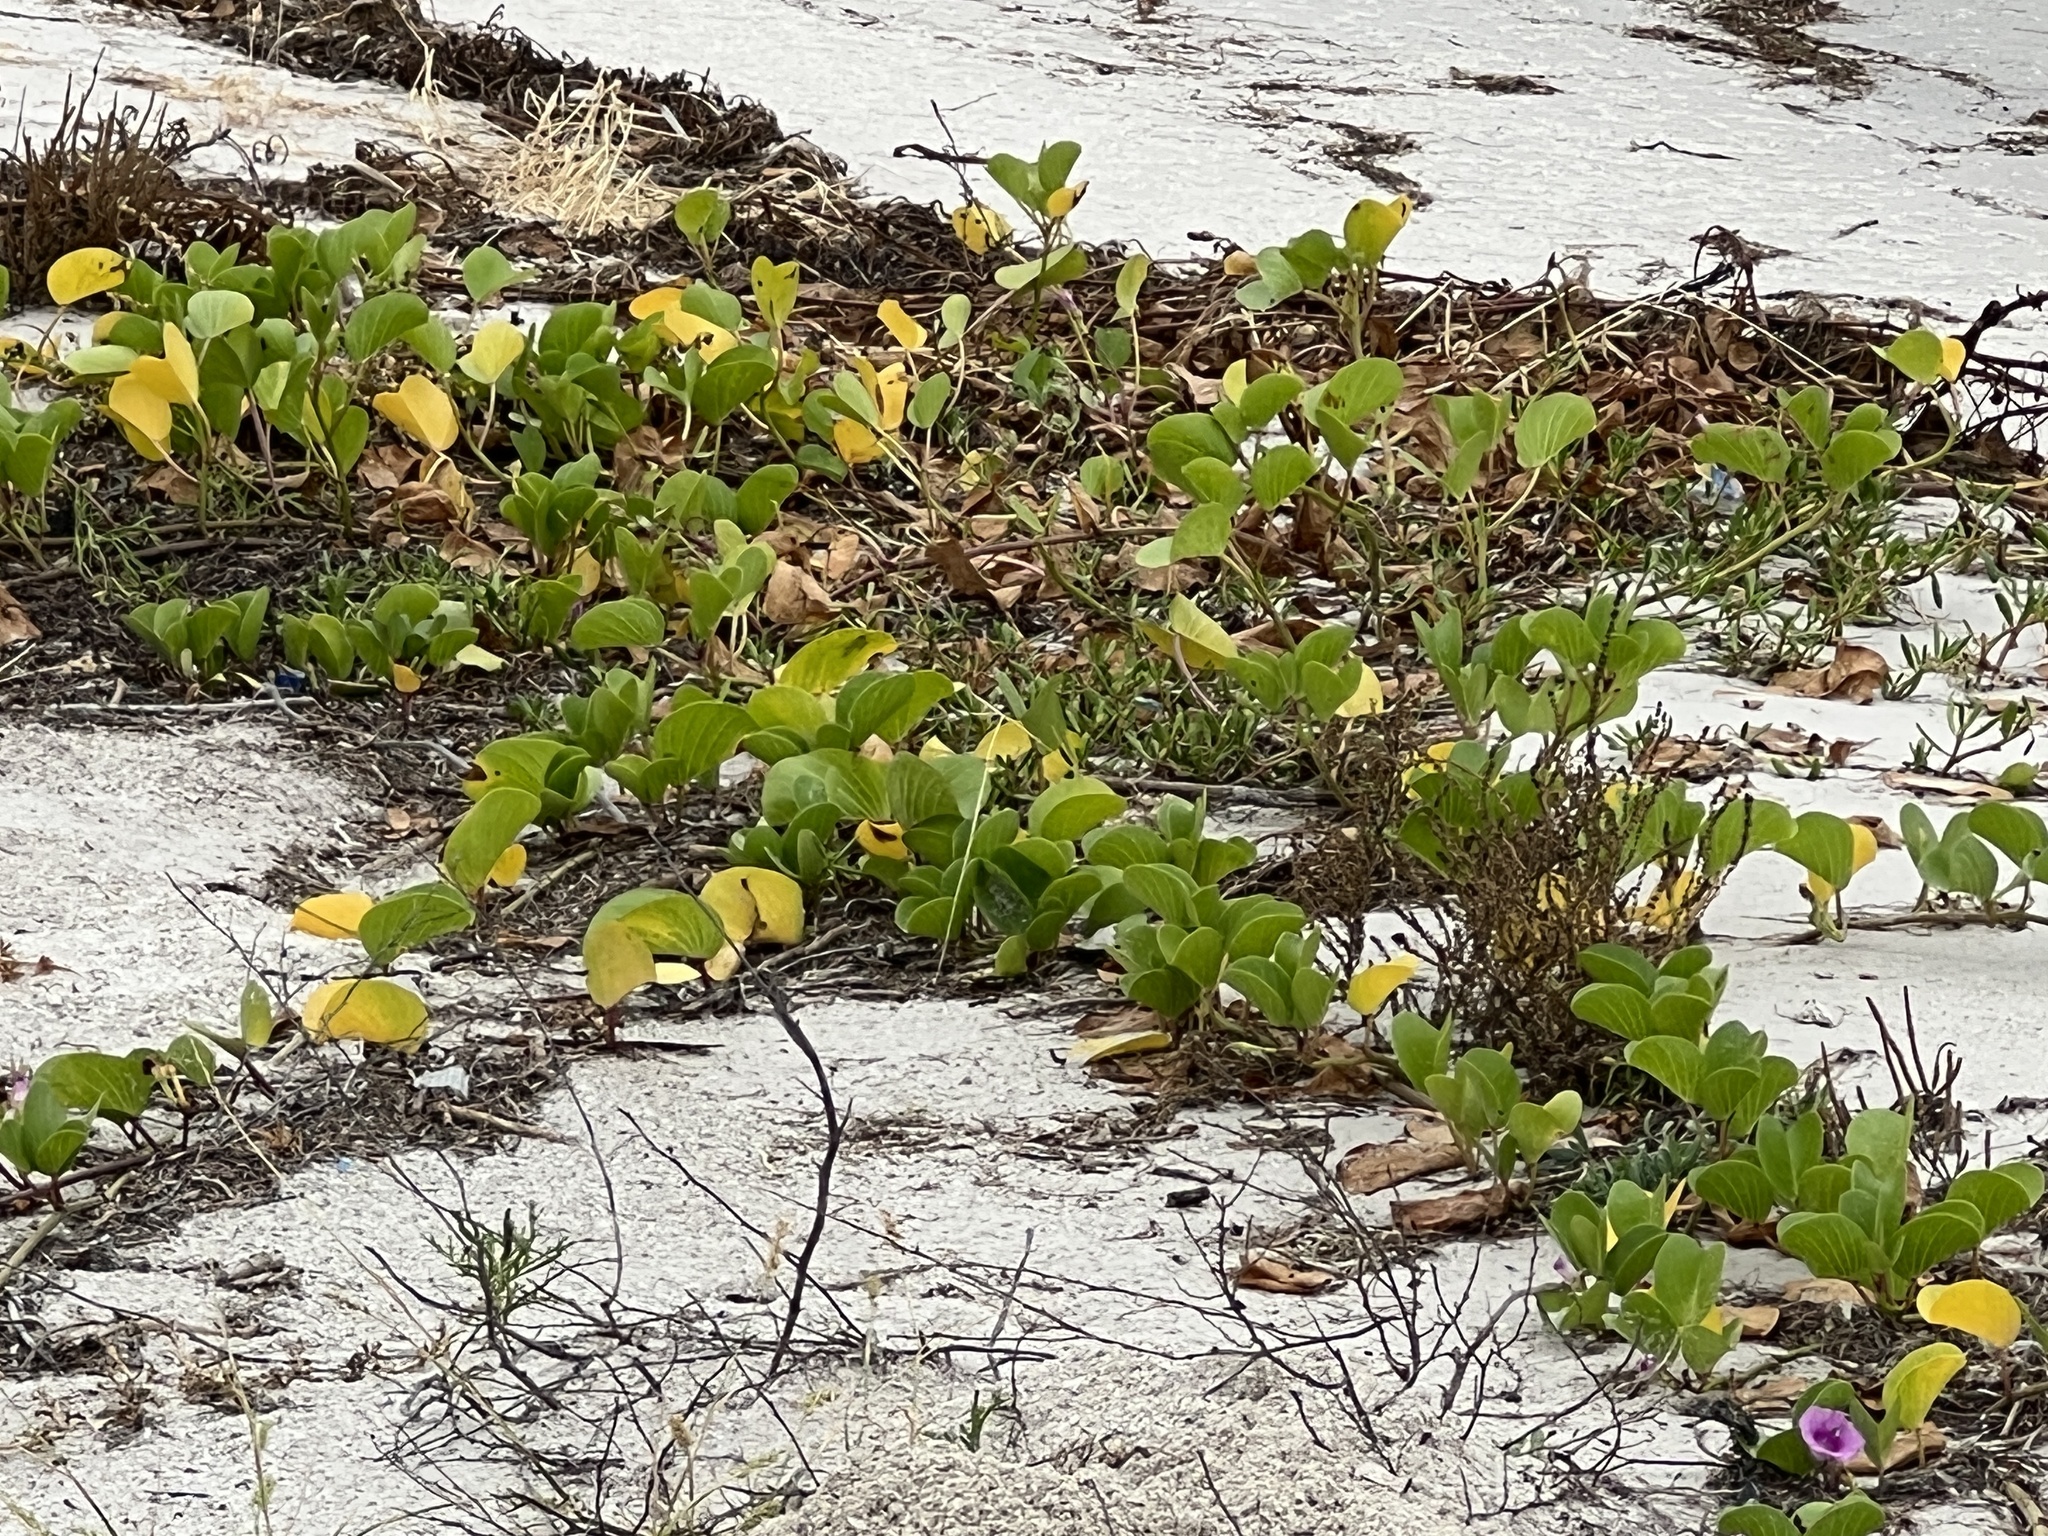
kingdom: Plantae
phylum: Tracheophyta
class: Magnoliopsida
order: Solanales
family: Convolvulaceae
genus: Ipomoea
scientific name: Ipomoea pes-caprae
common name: Beach morning glory
